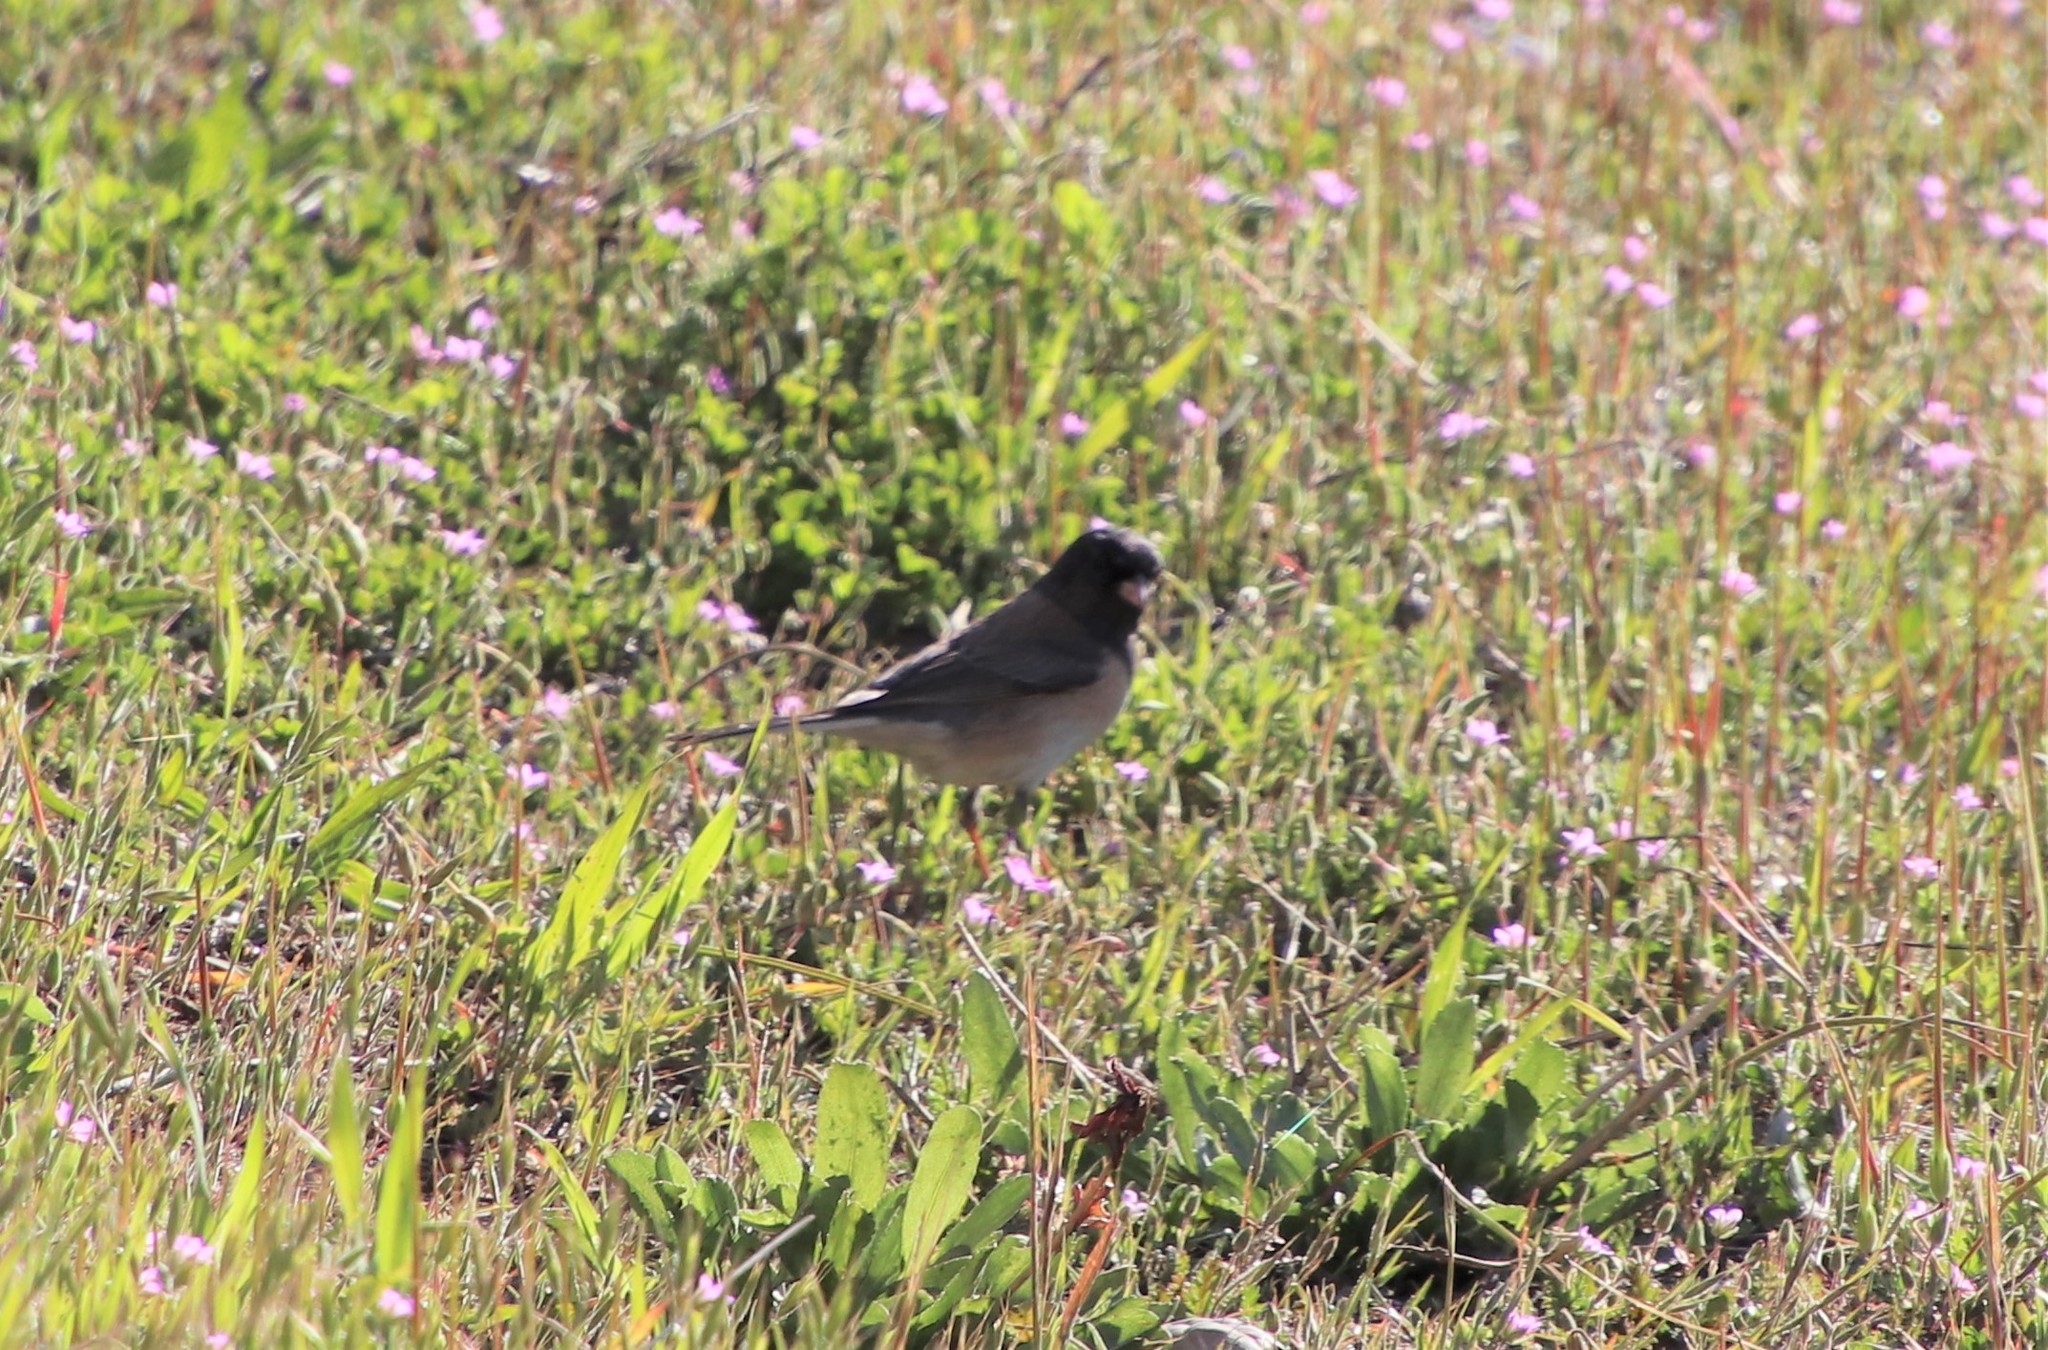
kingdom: Animalia
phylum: Chordata
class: Aves
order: Passeriformes
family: Passerellidae
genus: Junco
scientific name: Junco hyemalis
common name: Dark-eyed junco
